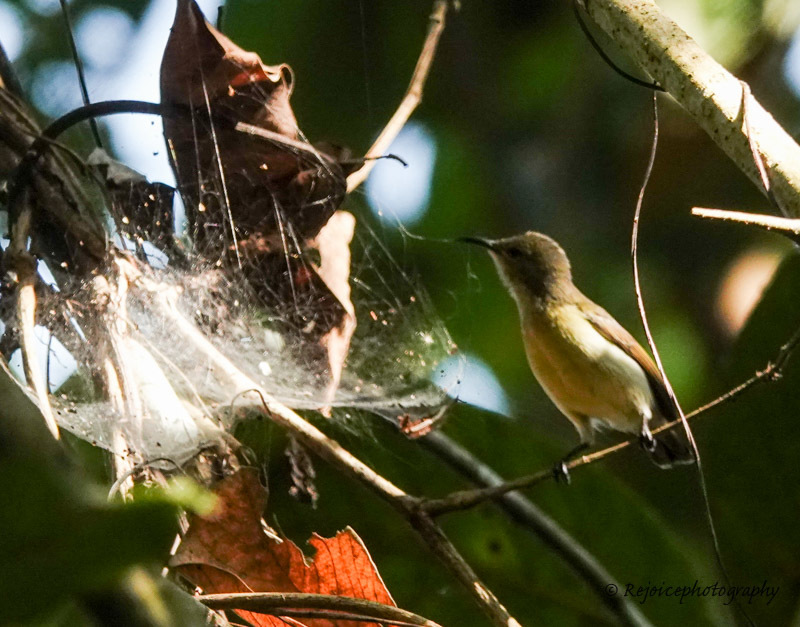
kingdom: Animalia
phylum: Chordata
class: Aves
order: Passeriformes
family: Nectariniidae
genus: Leptocoma
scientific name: Leptocoma brasiliana
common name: Van hasselt's sunbird
